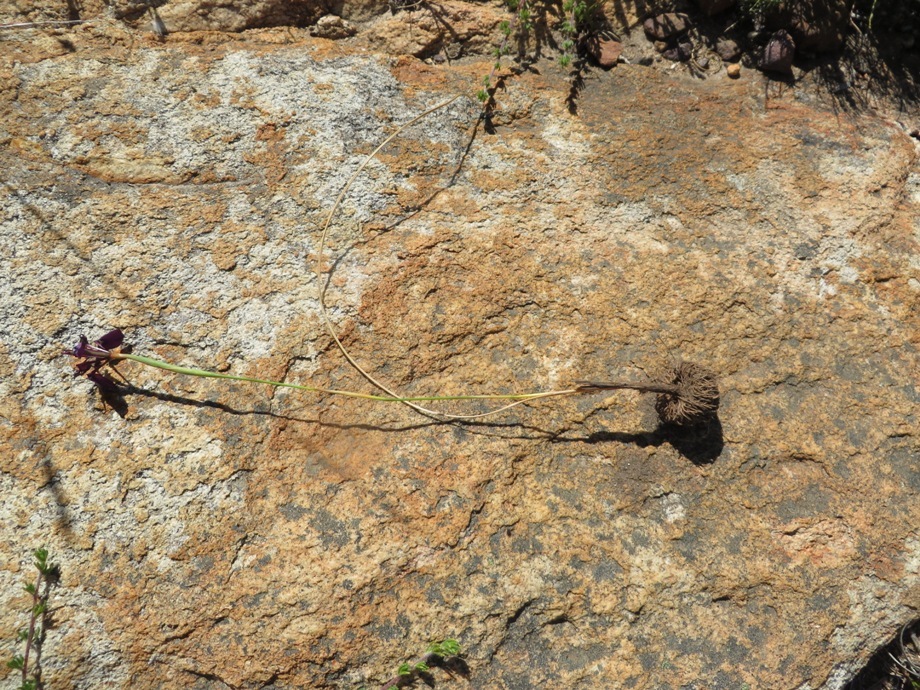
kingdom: Plantae
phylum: Tracheophyta
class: Liliopsida
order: Asparagales
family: Iridaceae
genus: Moraea
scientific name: Moraea incurva
